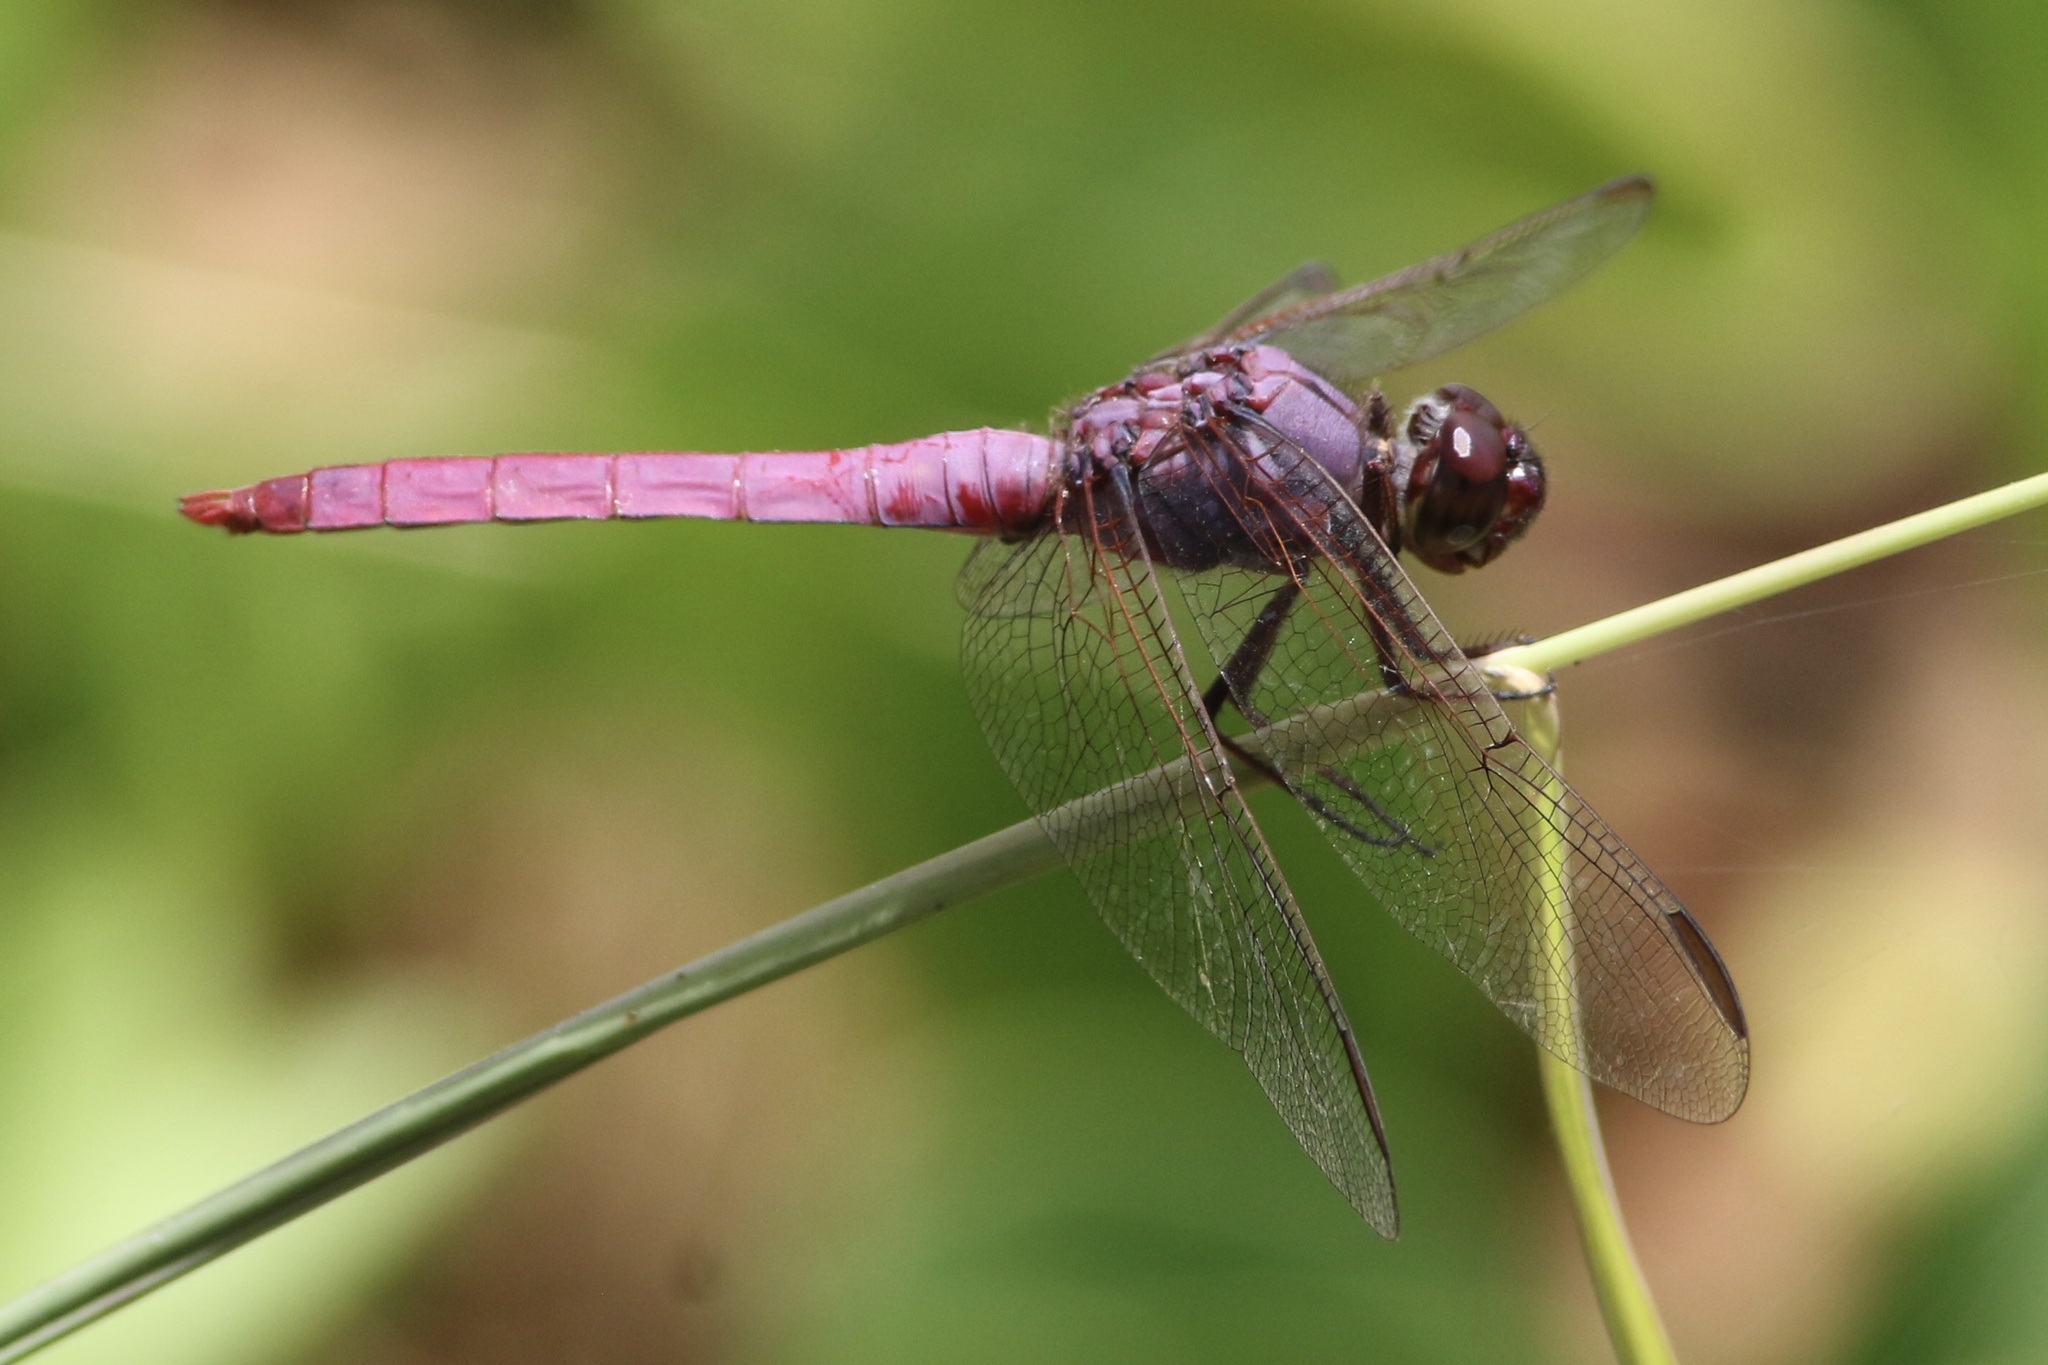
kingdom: Animalia
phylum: Arthropoda
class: Insecta
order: Odonata
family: Libellulidae
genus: Orthemis
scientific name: Orthemis ferruginea
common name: Roseate skimmer
